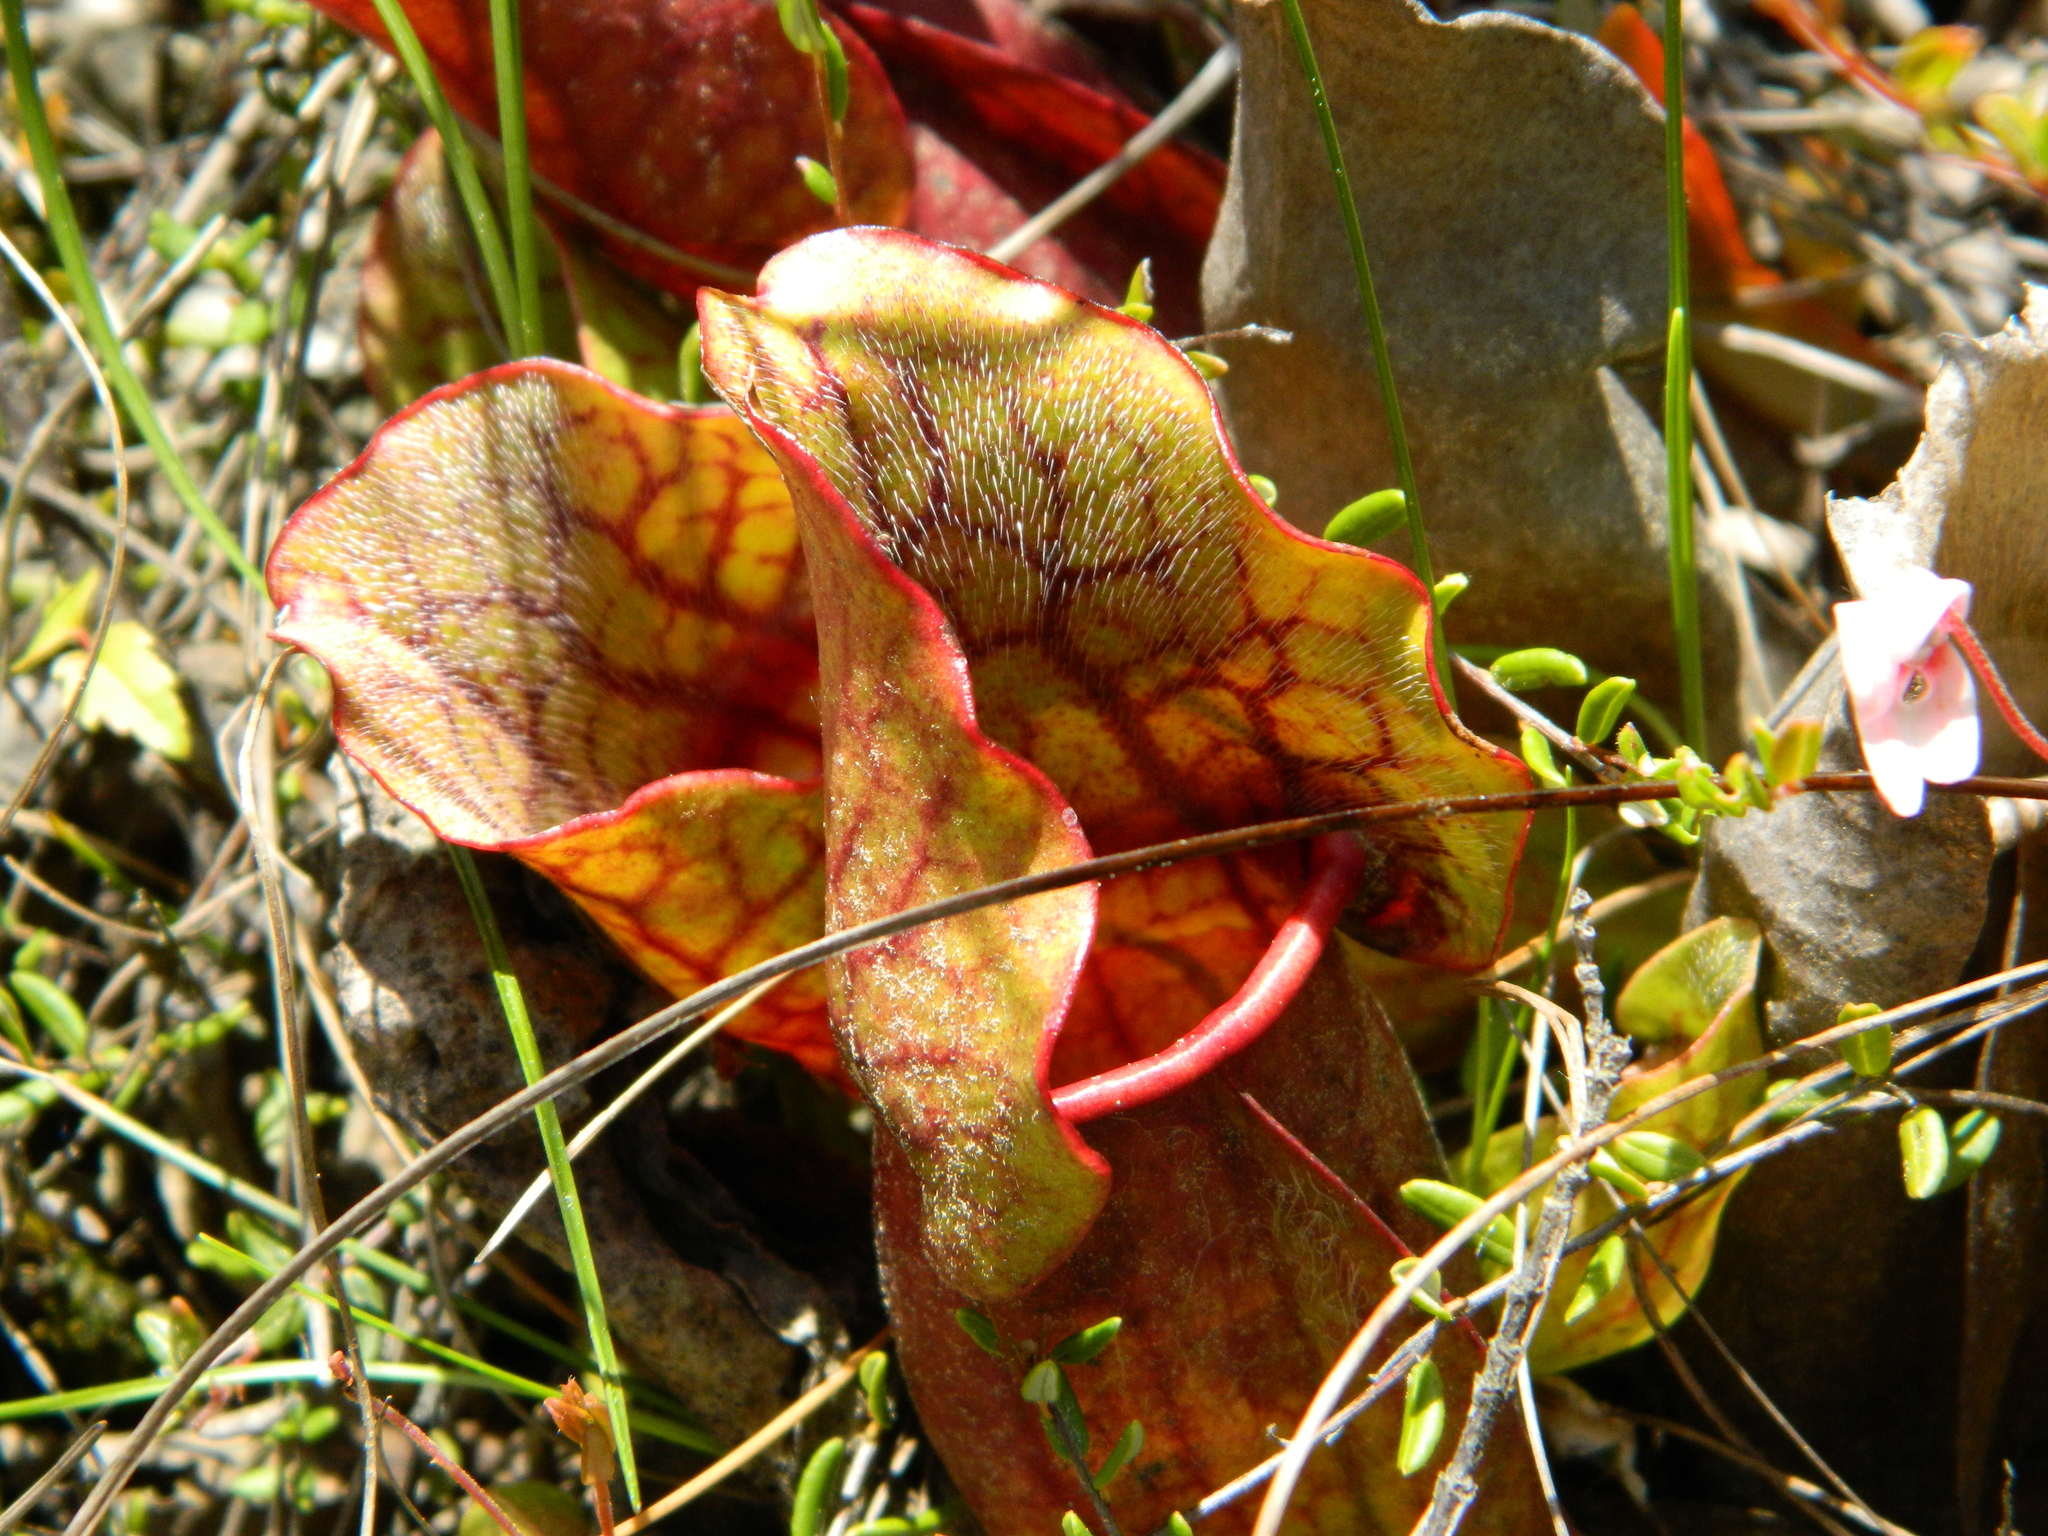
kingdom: Plantae
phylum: Tracheophyta
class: Magnoliopsida
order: Ericales
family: Sarraceniaceae
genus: Sarracenia
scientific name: Sarracenia purpurea
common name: Pitcherplant
